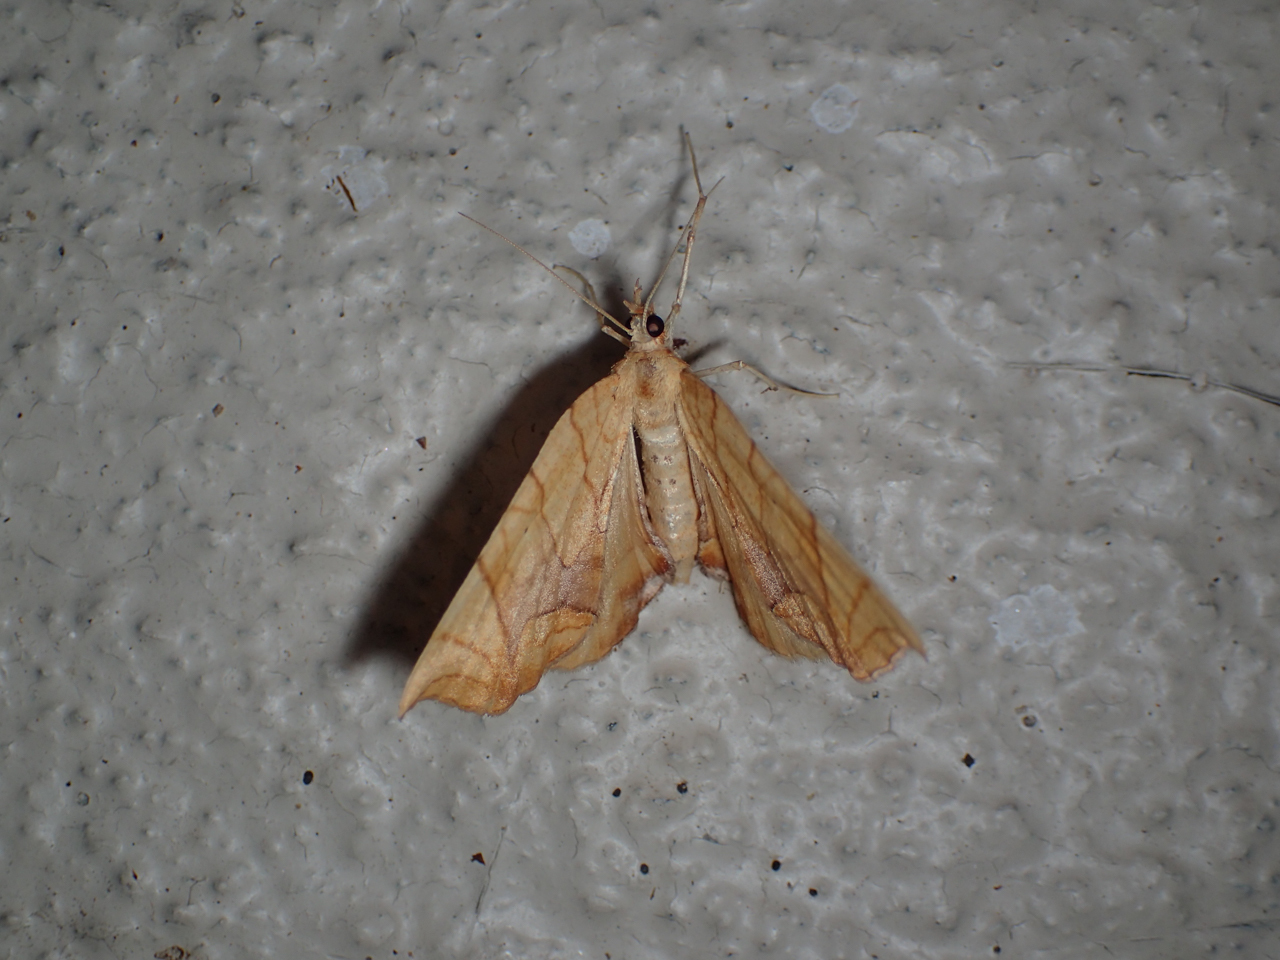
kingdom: Animalia
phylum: Arthropoda
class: Insecta
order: Lepidoptera
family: Geometridae
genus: Eulithis
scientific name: Eulithis
